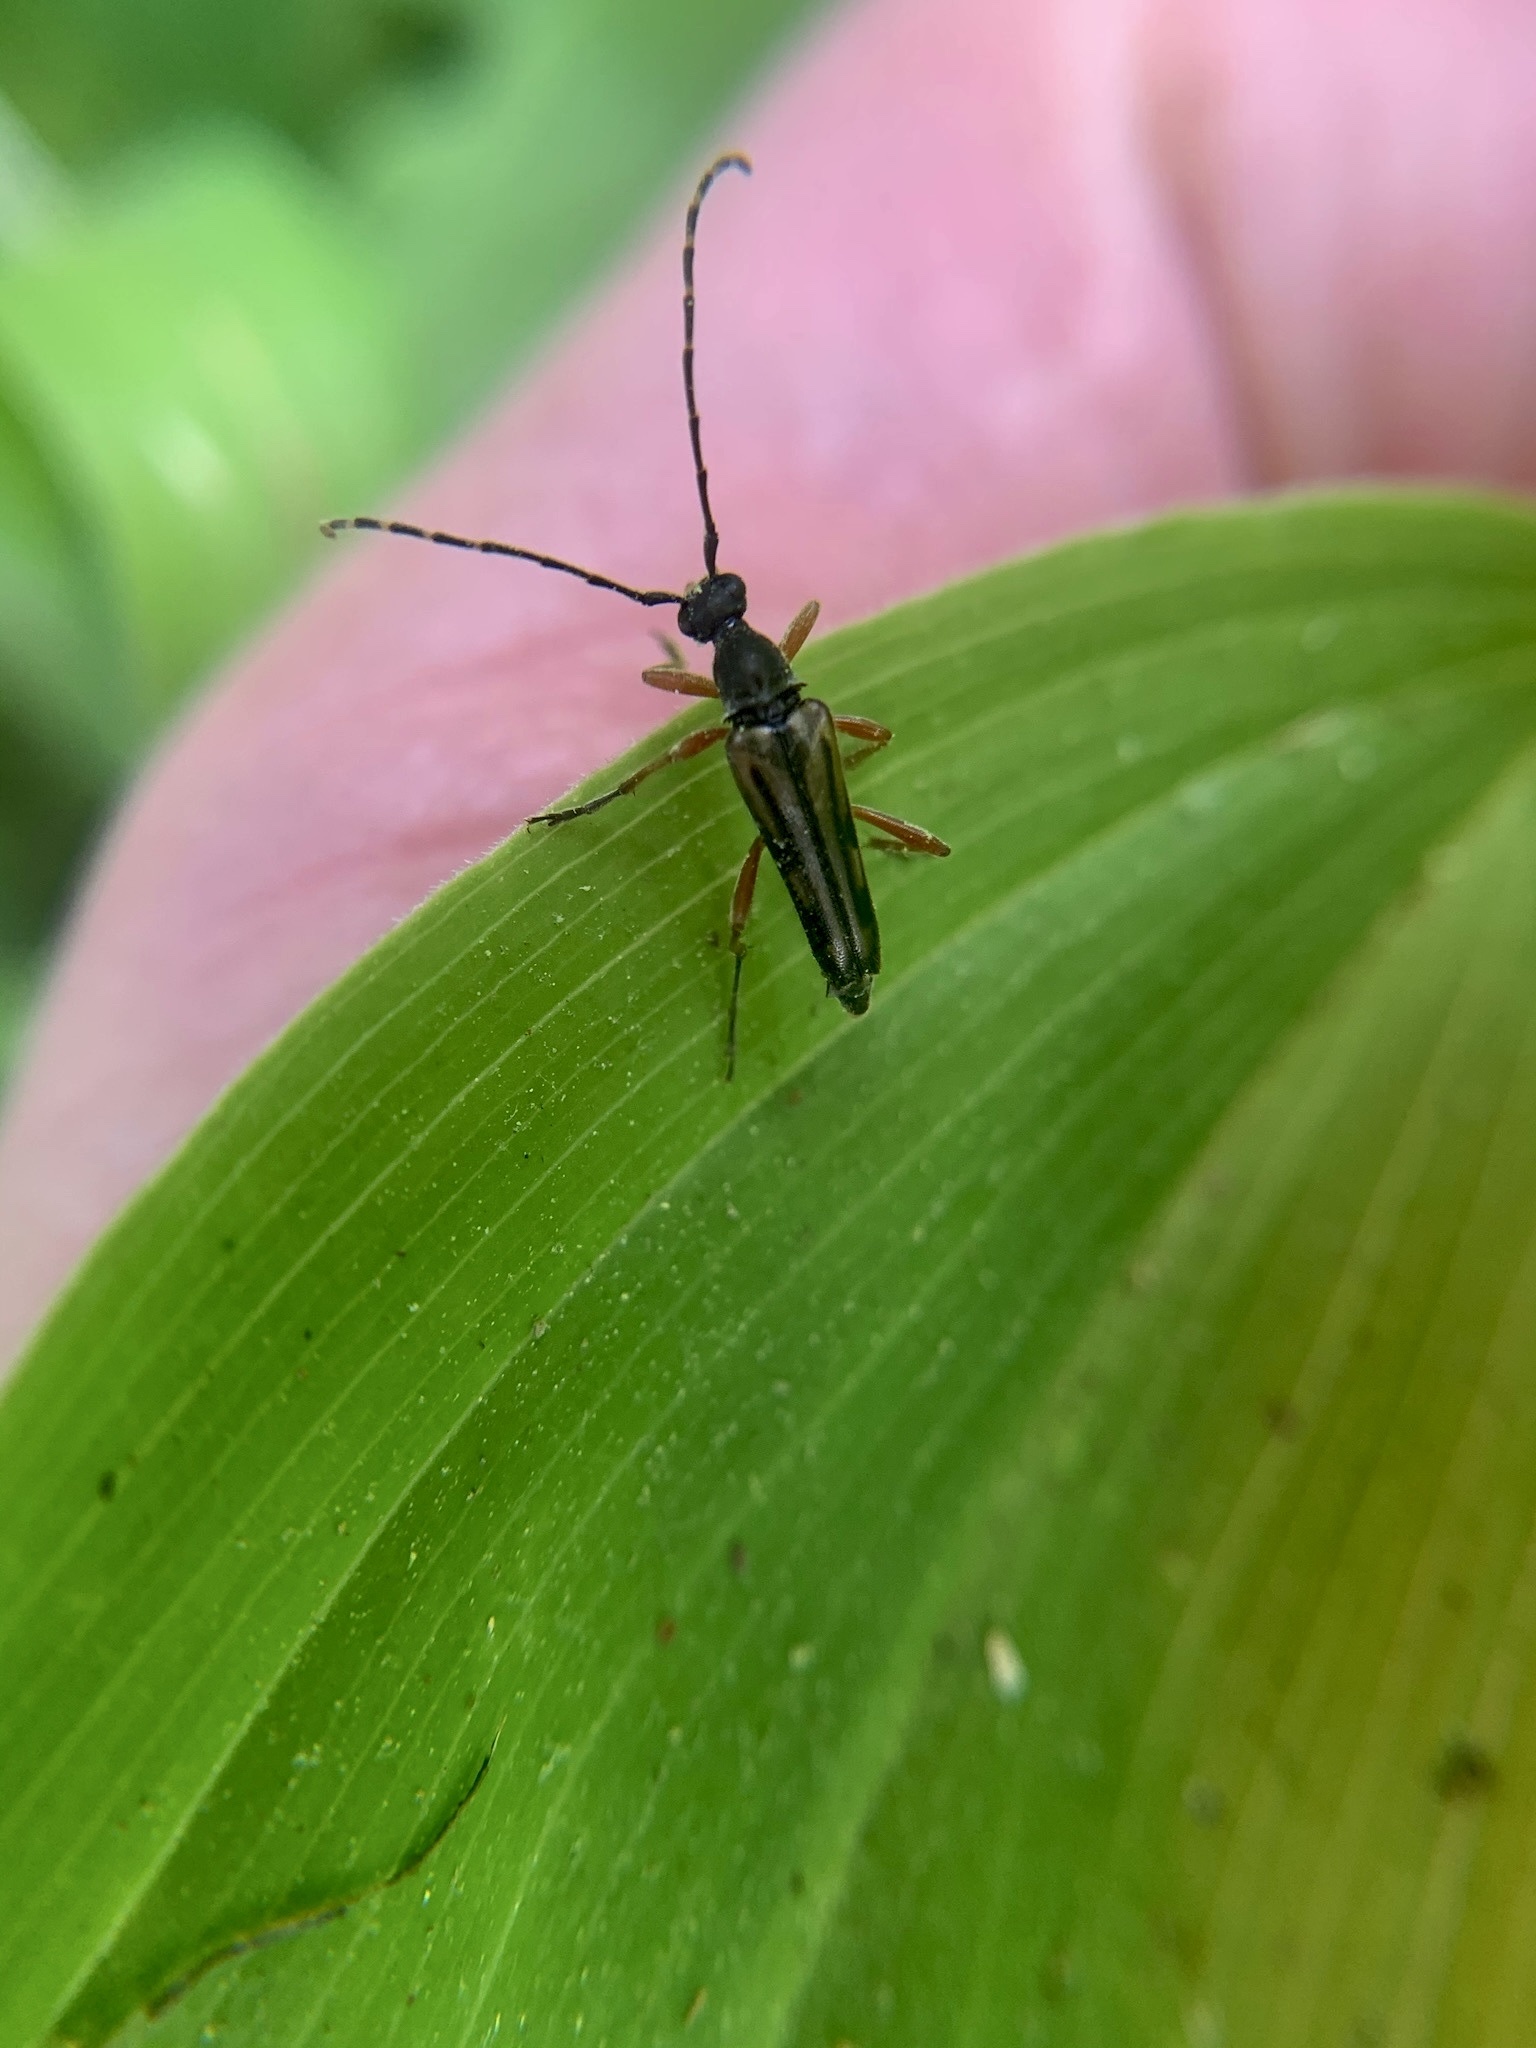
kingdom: Animalia
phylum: Arthropoda
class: Insecta
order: Coleoptera
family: Cerambycidae
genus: Analeptura
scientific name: Analeptura lineola
